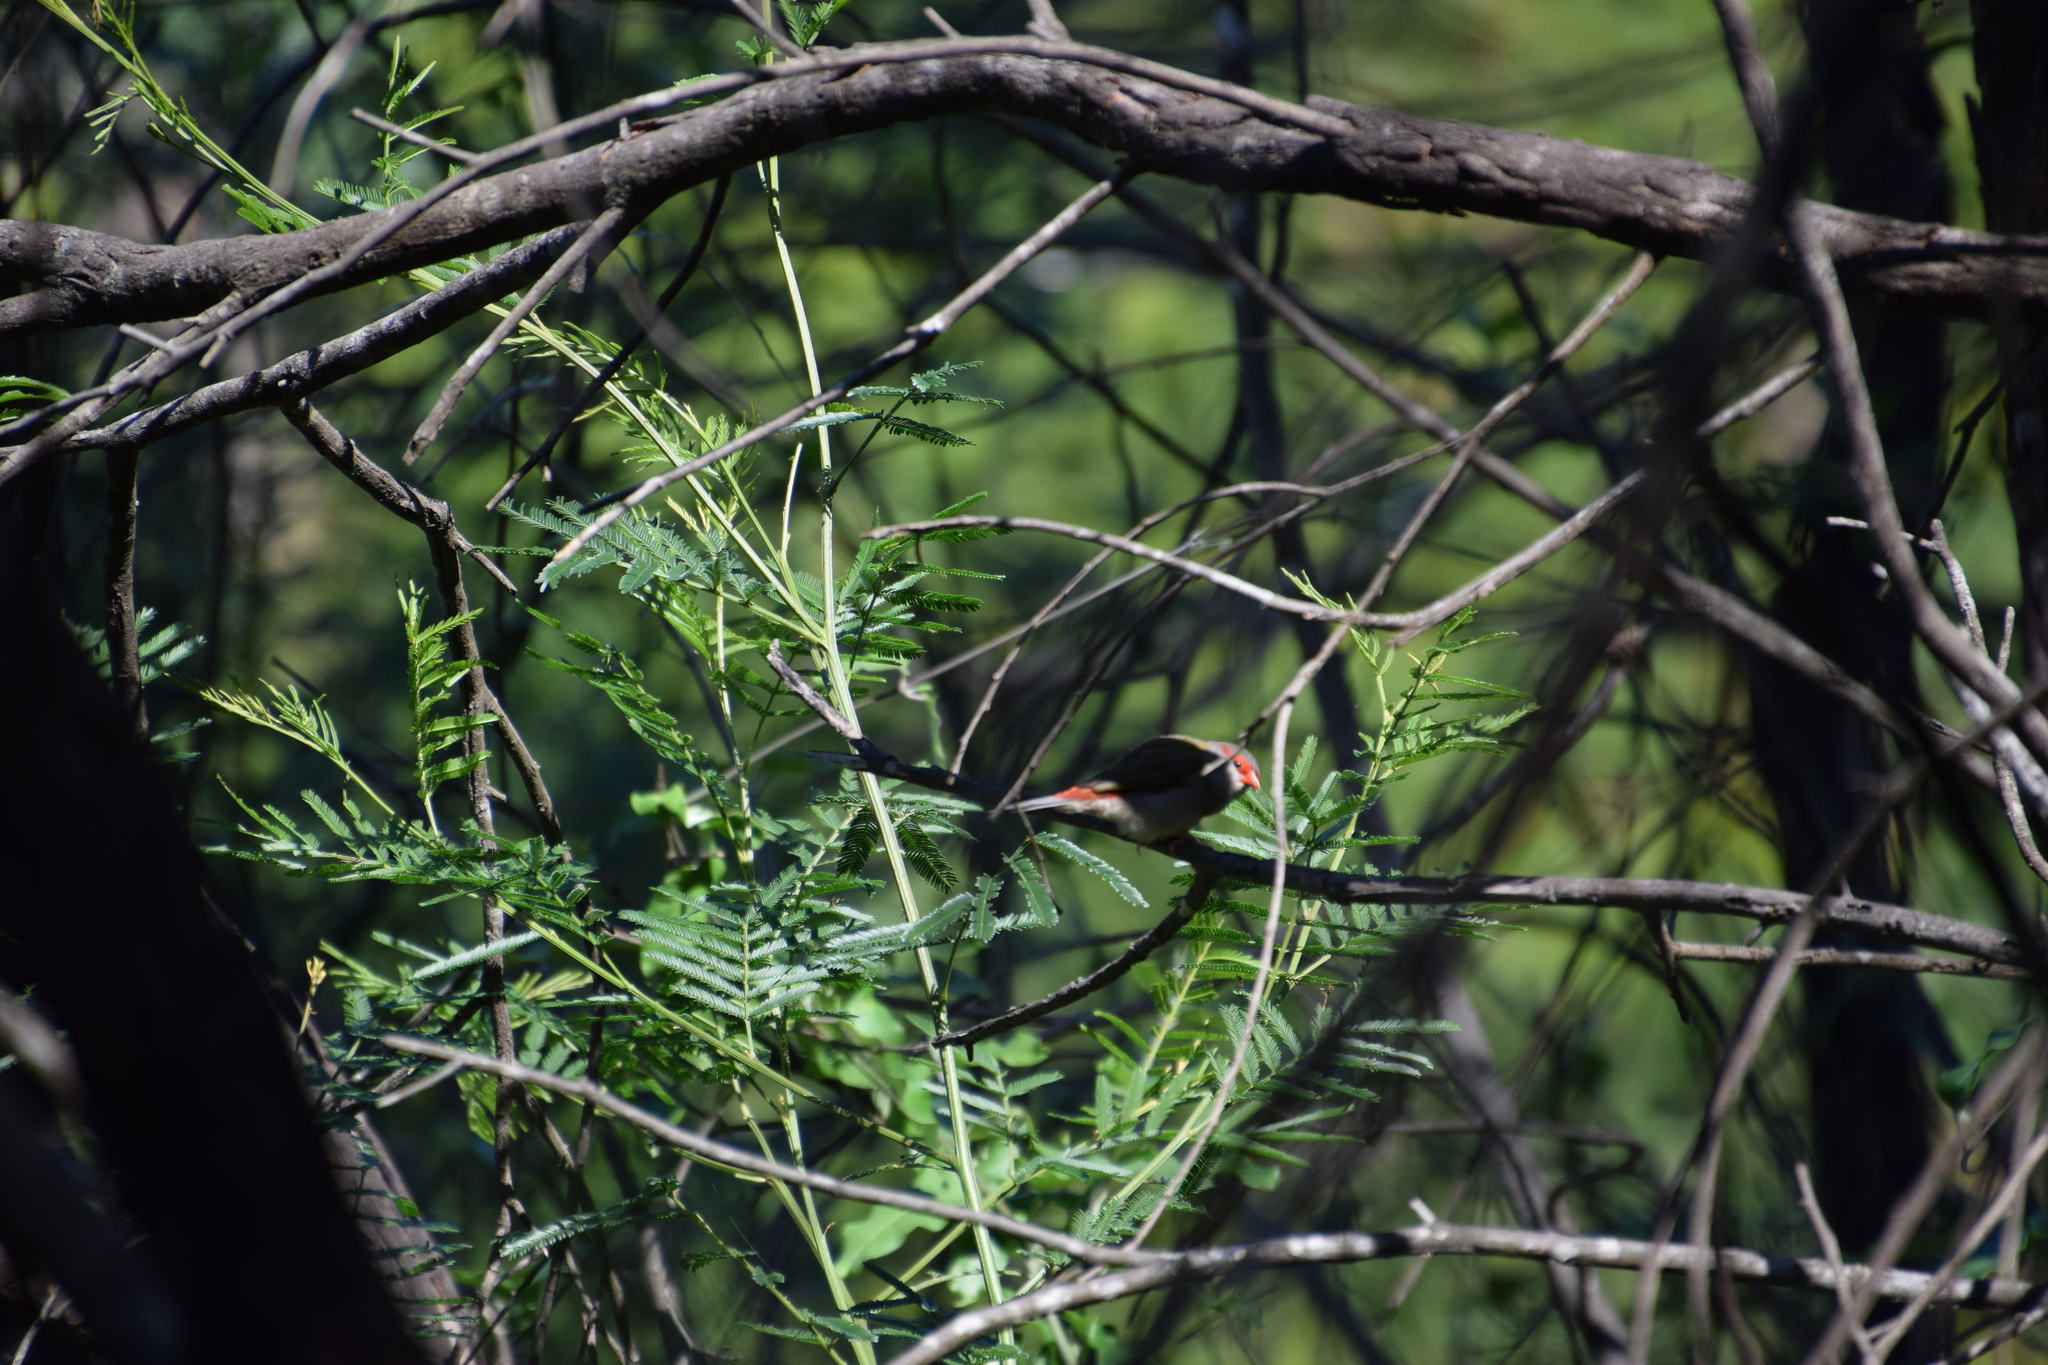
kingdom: Animalia
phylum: Chordata
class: Aves
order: Passeriformes
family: Estrildidae
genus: Neochmia
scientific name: Neochmia temporalis
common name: Red-browed finch
